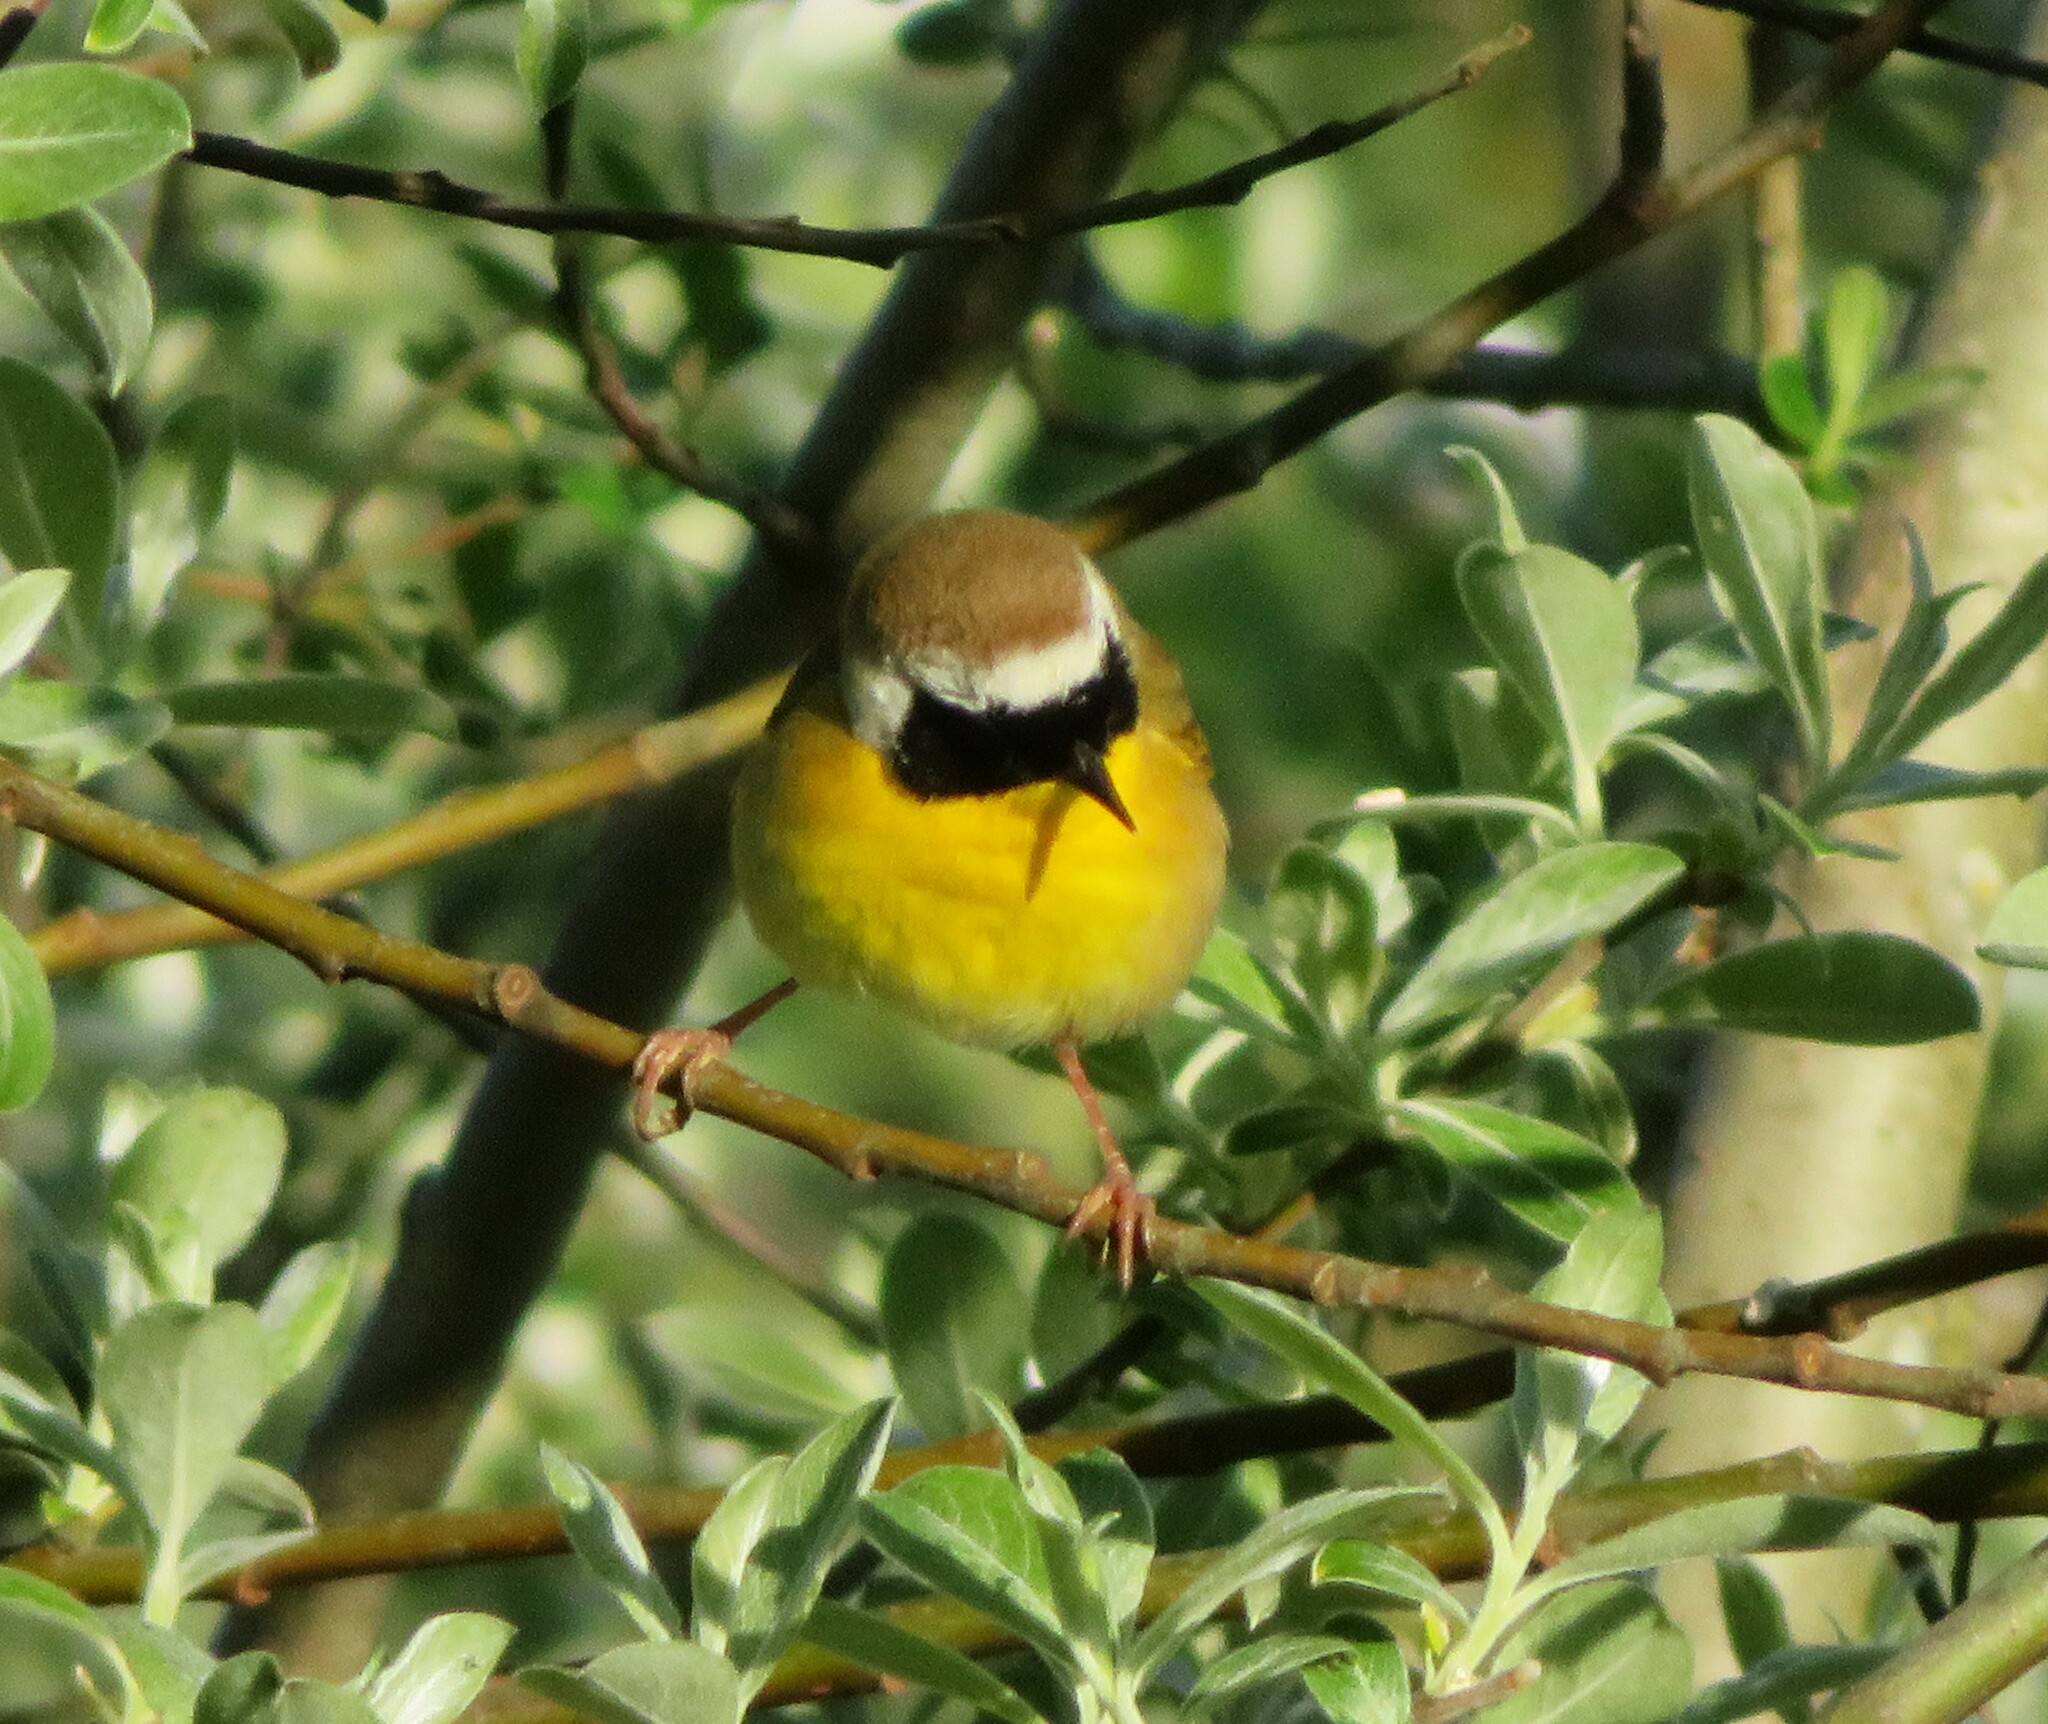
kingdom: Animalia
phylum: Chordata
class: Aves
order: Passeriformes
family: Parulidae
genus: Geothlypis
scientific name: Geothlypis trichas
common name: Common yellowthroat
